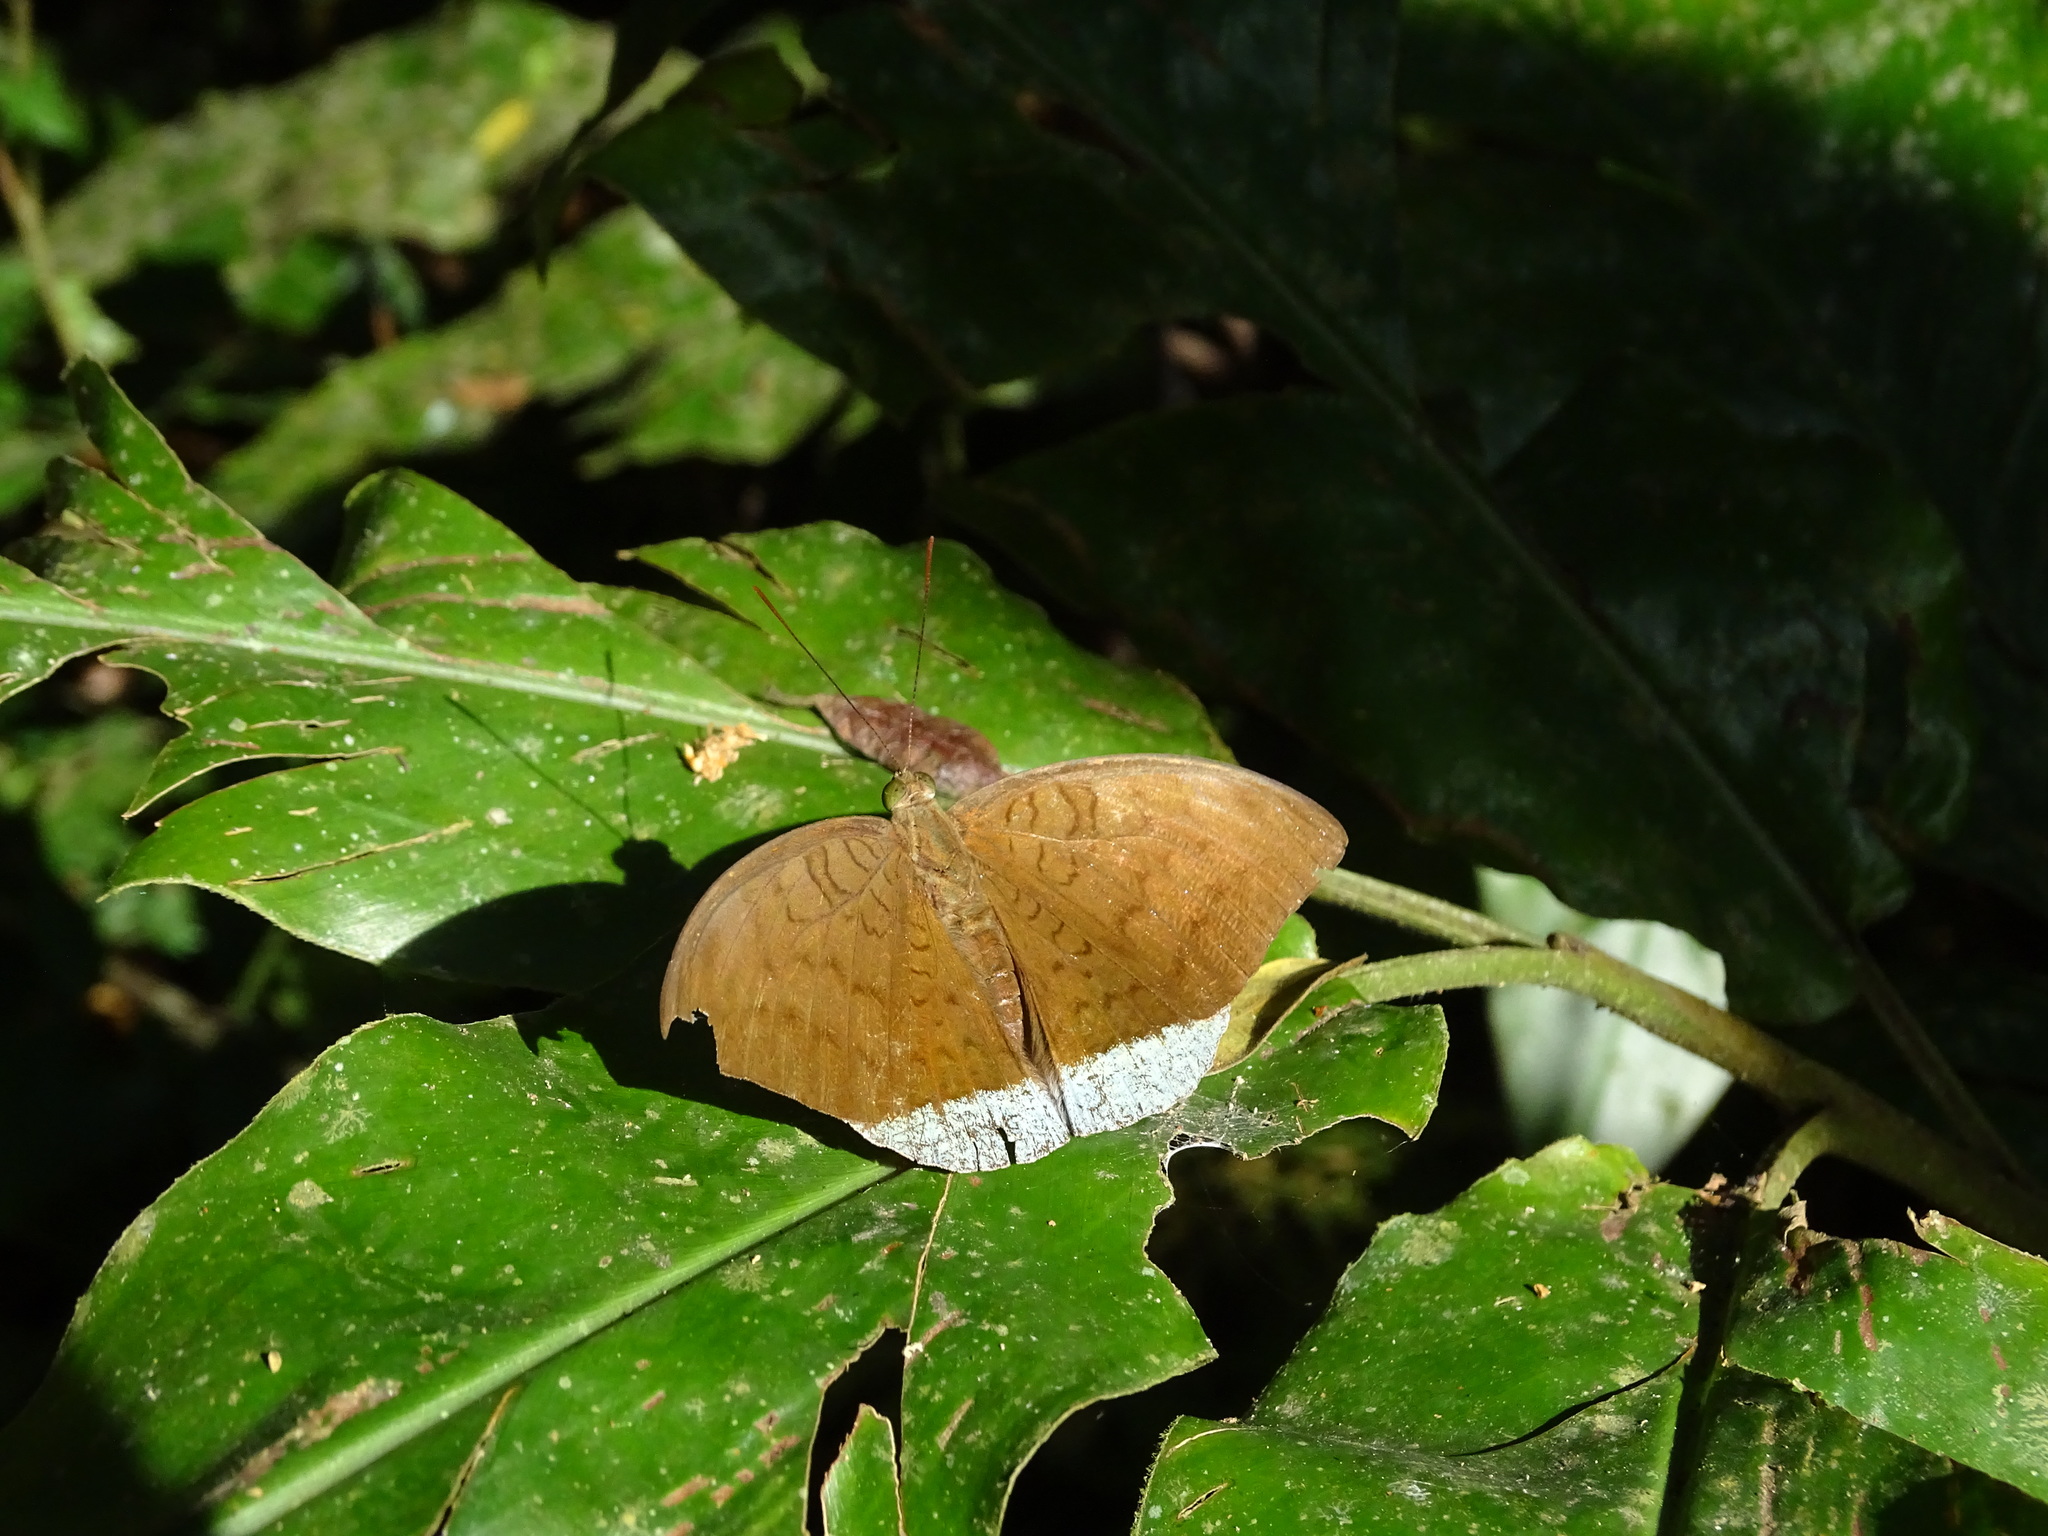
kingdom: Animalia
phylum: Arthropoda
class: Insecta
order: Lepidoptera
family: Nymphalidae
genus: Tanaecia
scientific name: Tanaecia julii
